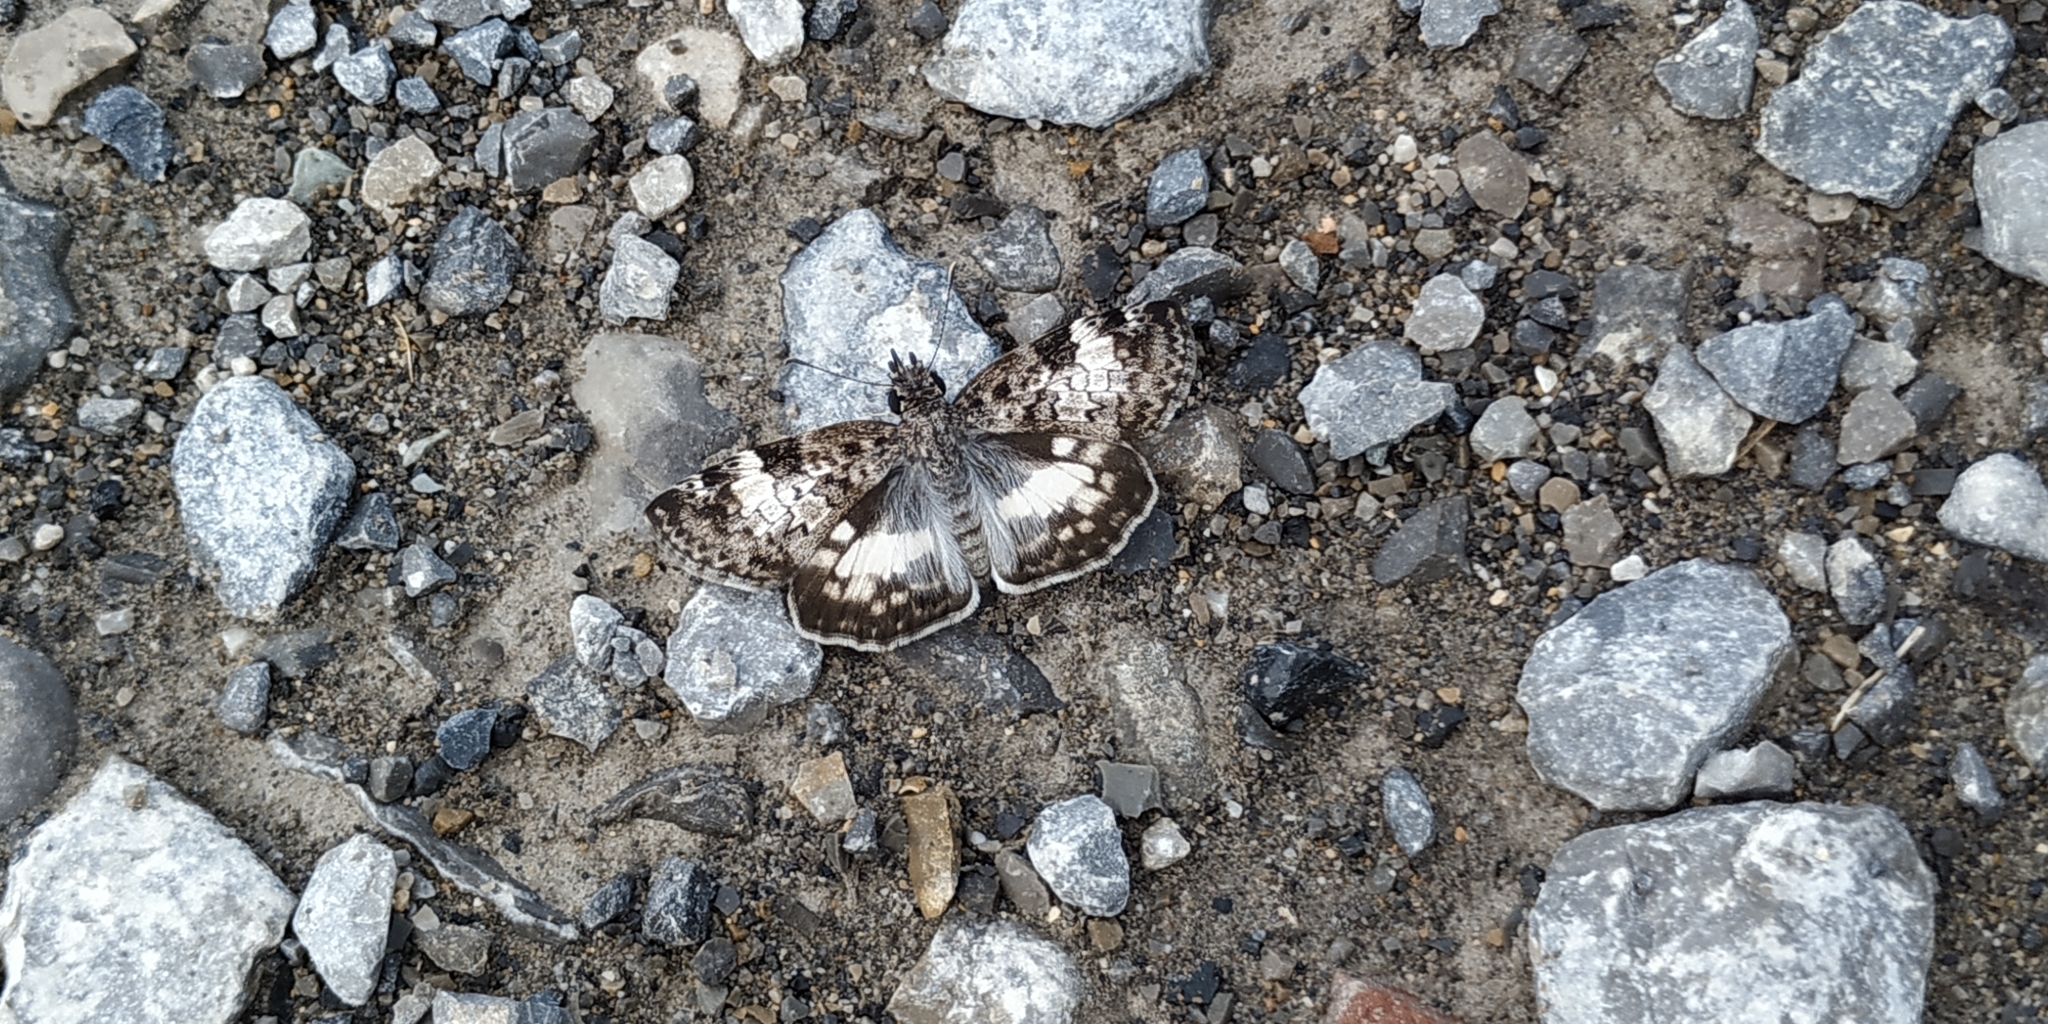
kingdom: Animalia
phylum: Arthropoda
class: Insecta
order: Lepidoptera
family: Hesperiidae
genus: Chiothion
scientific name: Chiothion georgina
